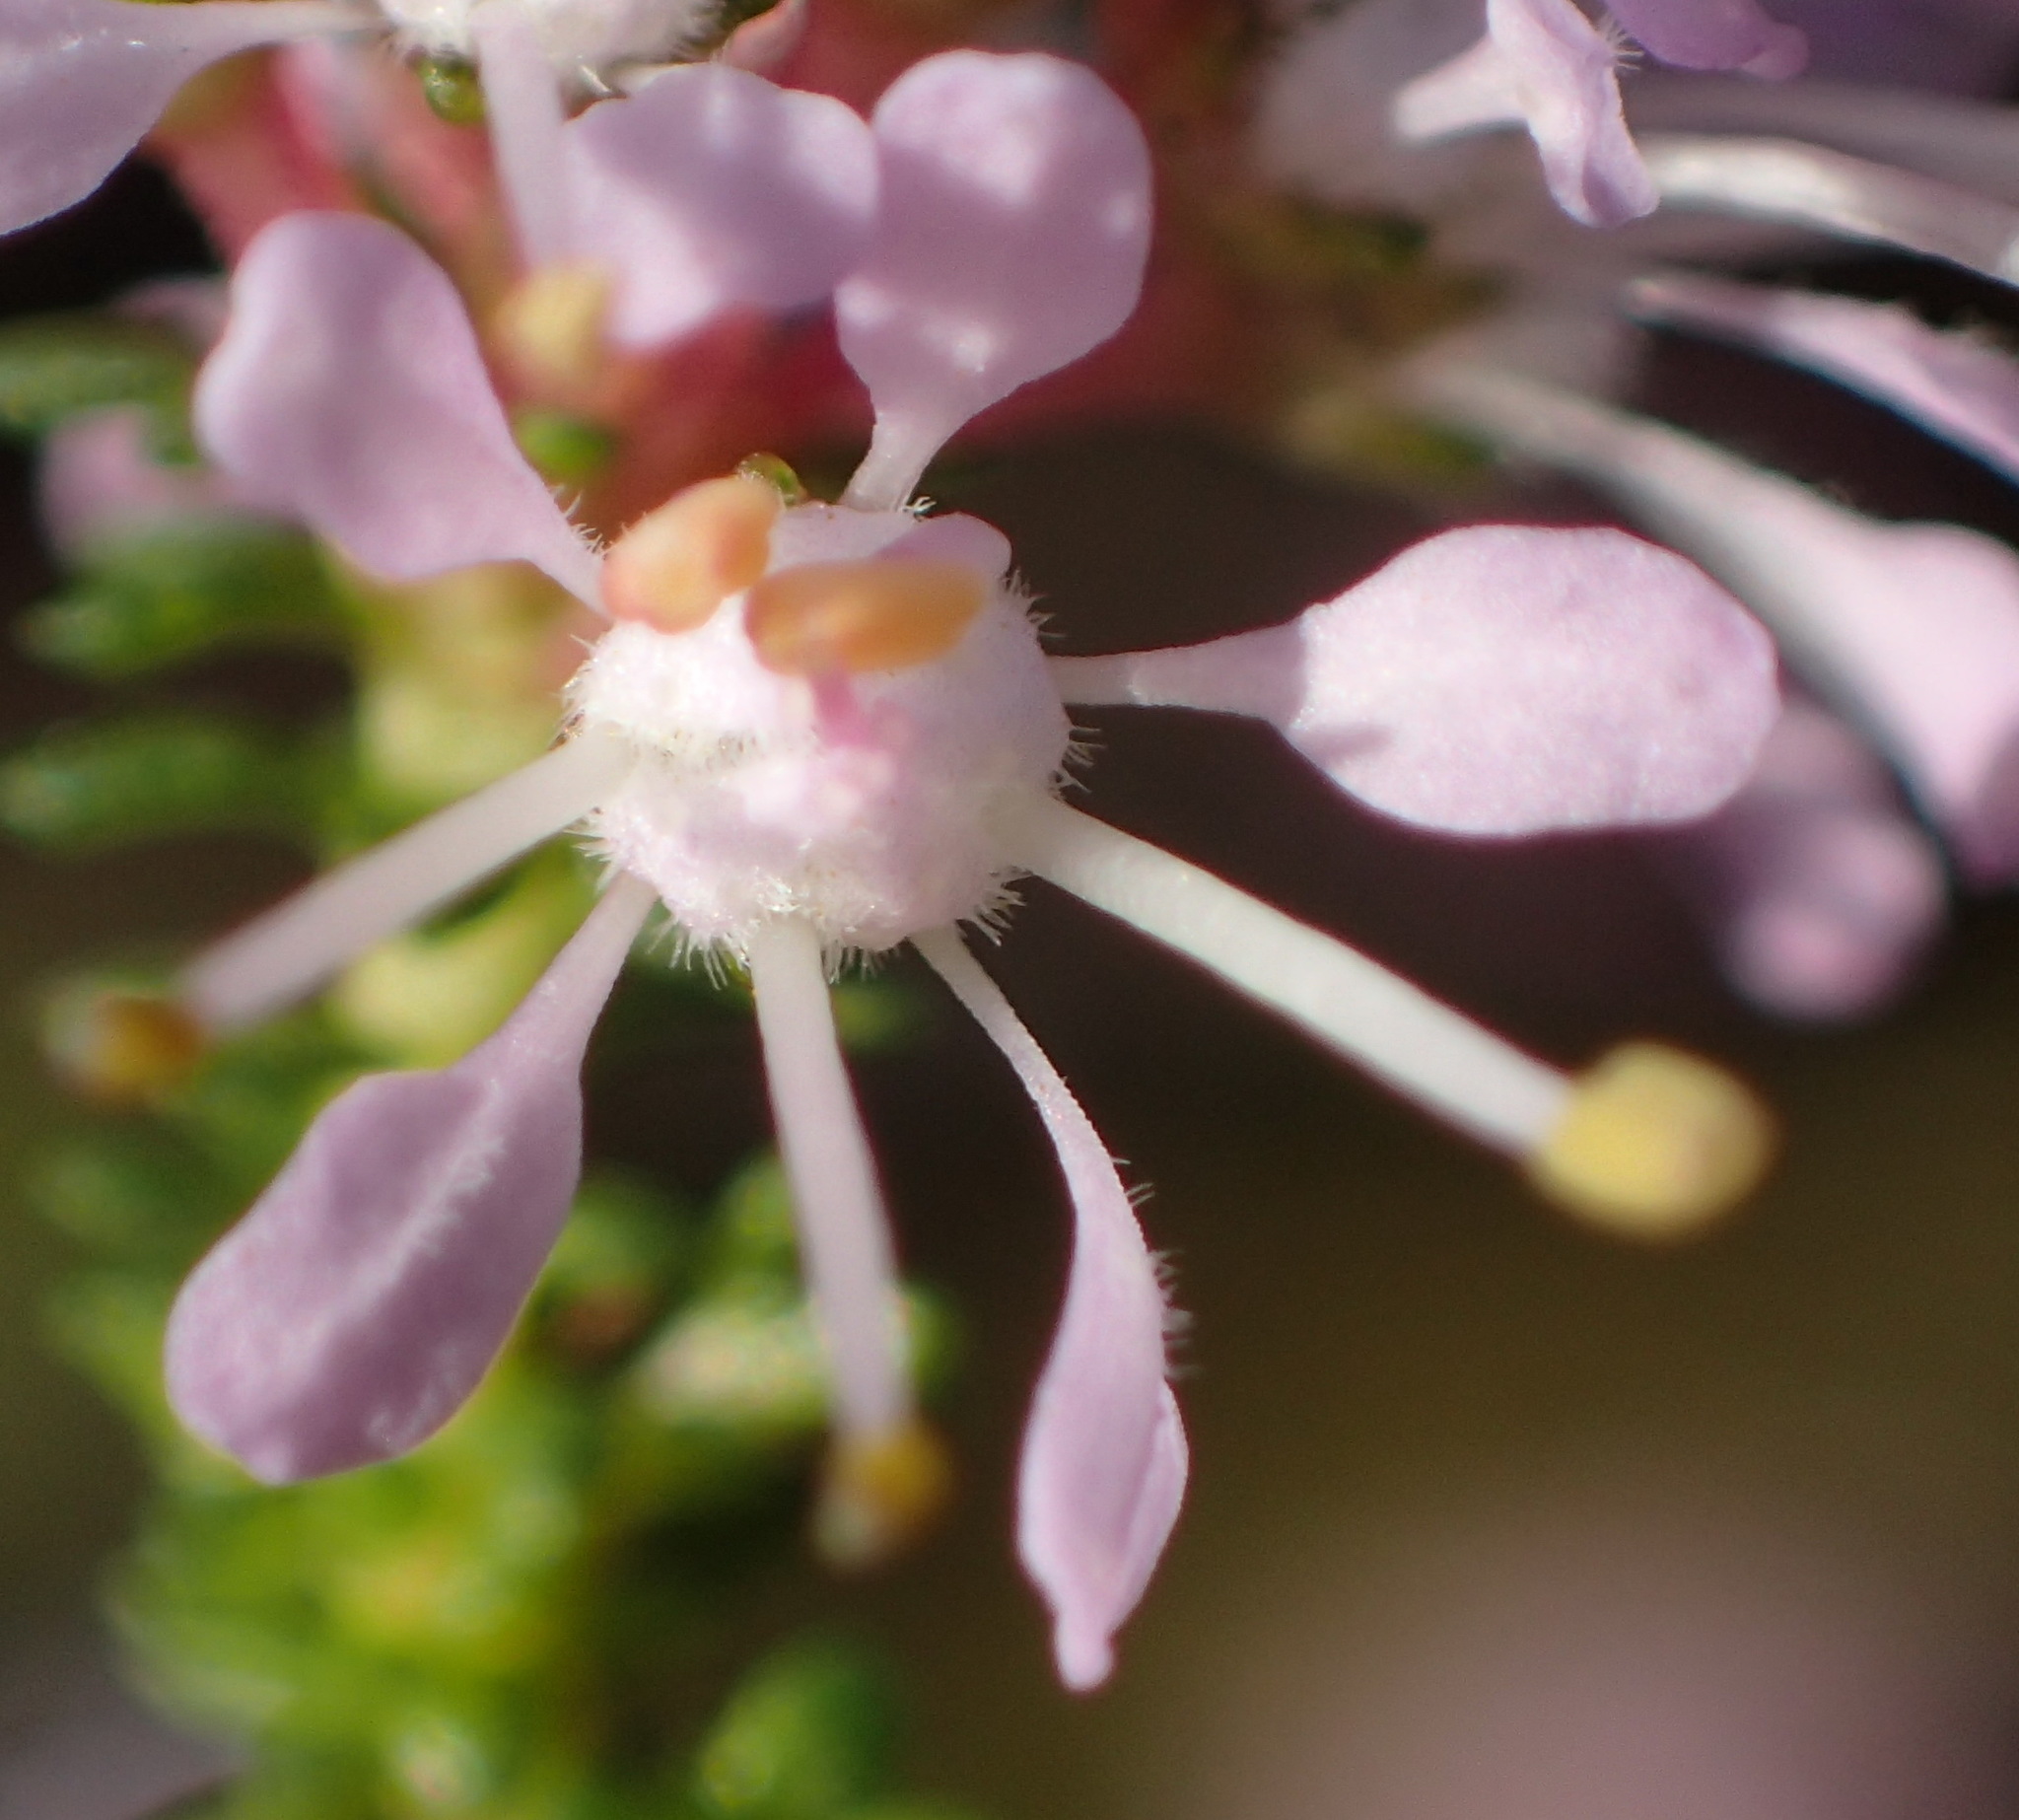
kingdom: Plantae
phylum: Tracheophyta
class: Magnoliopsida
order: Sapindales
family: Rutaceae
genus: Agathosma
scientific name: Agathosma capensis
